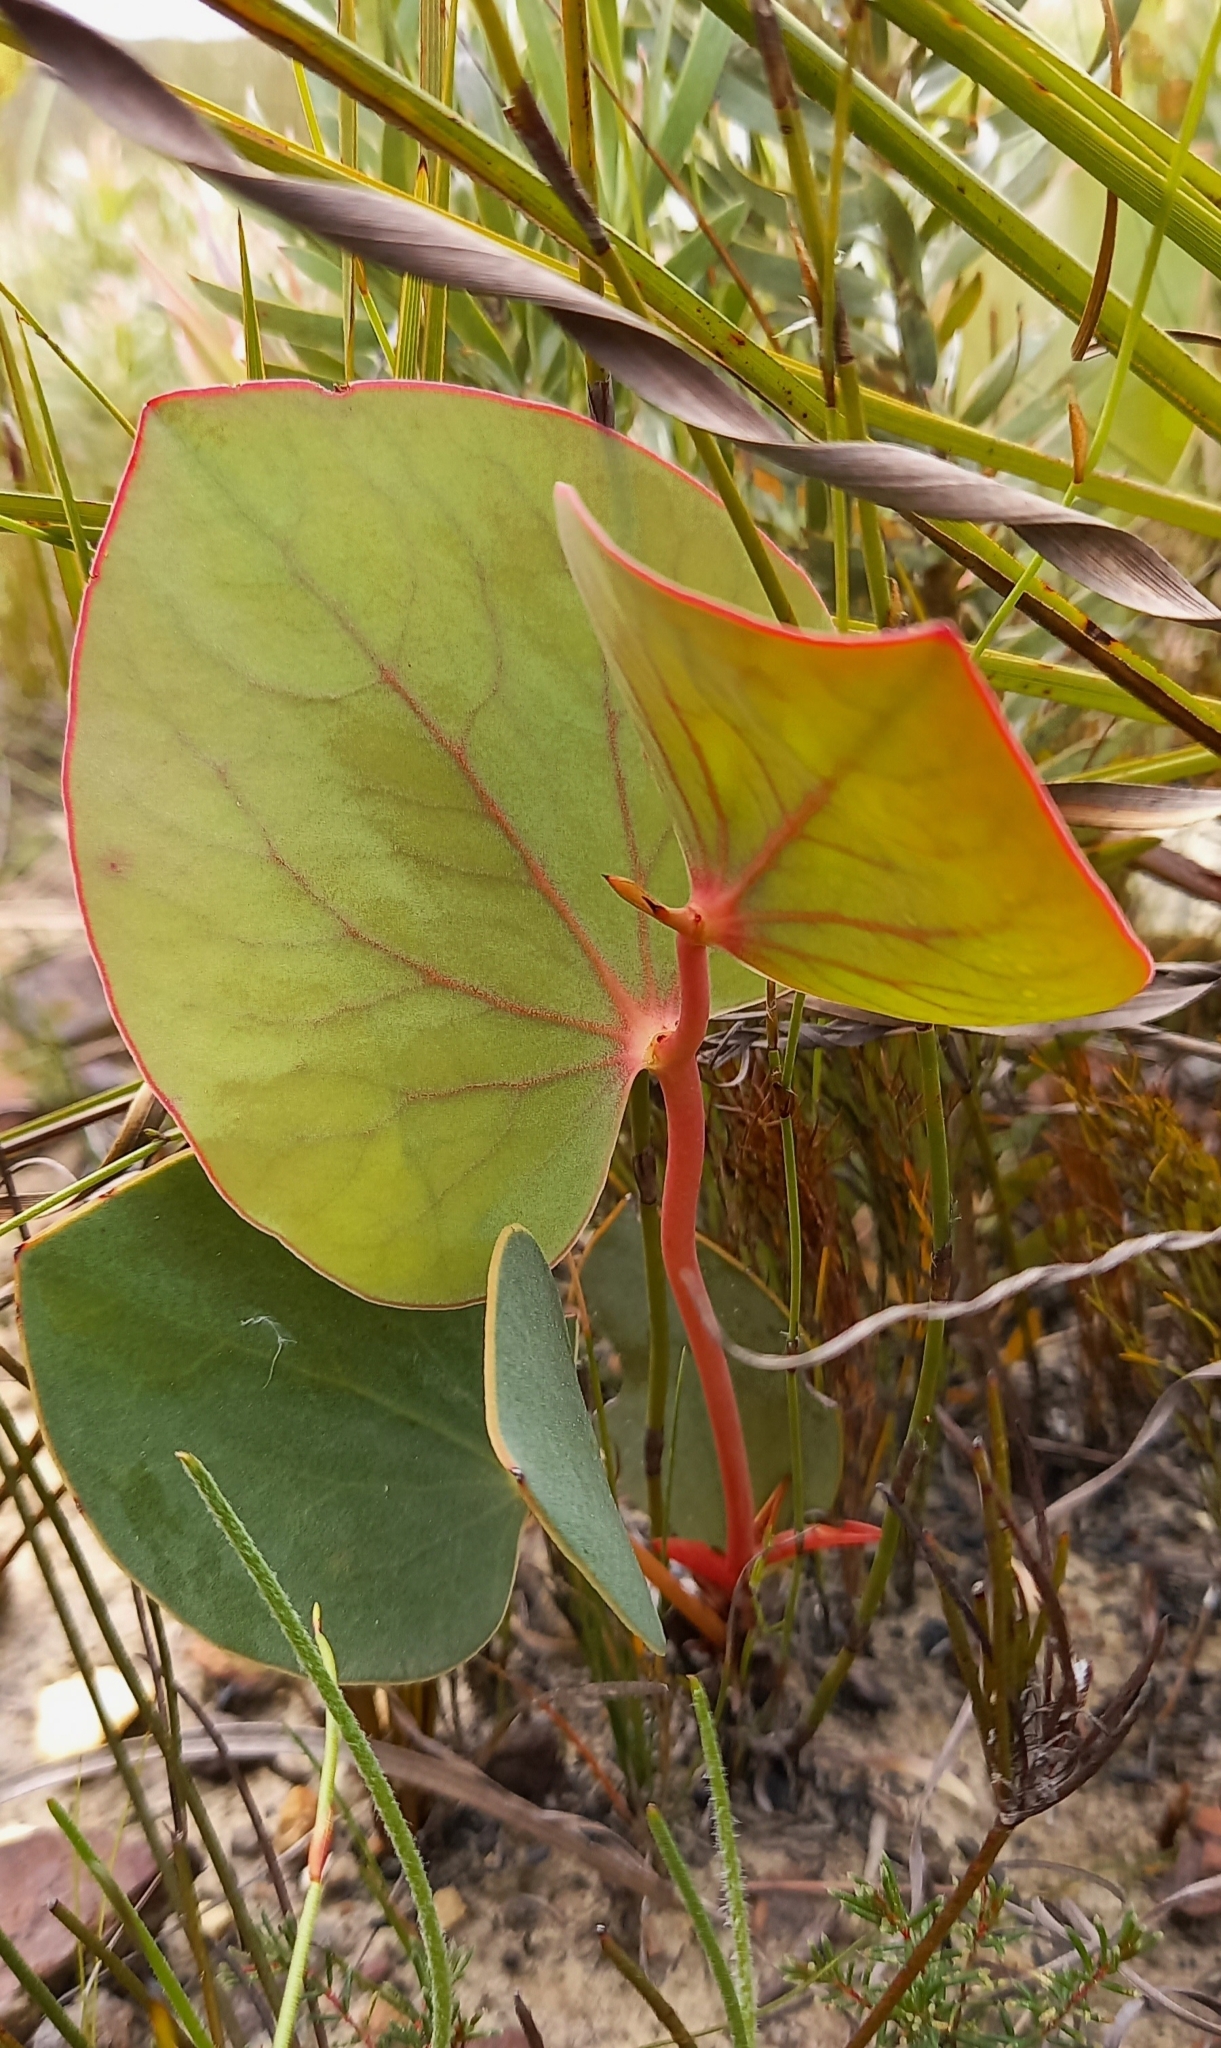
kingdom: Plantae
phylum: Tracheophyta
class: Magnoliopsida
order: Proteales
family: Proteaceae
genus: Protea
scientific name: Protea cordata
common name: Heart-leaf sugarbush
